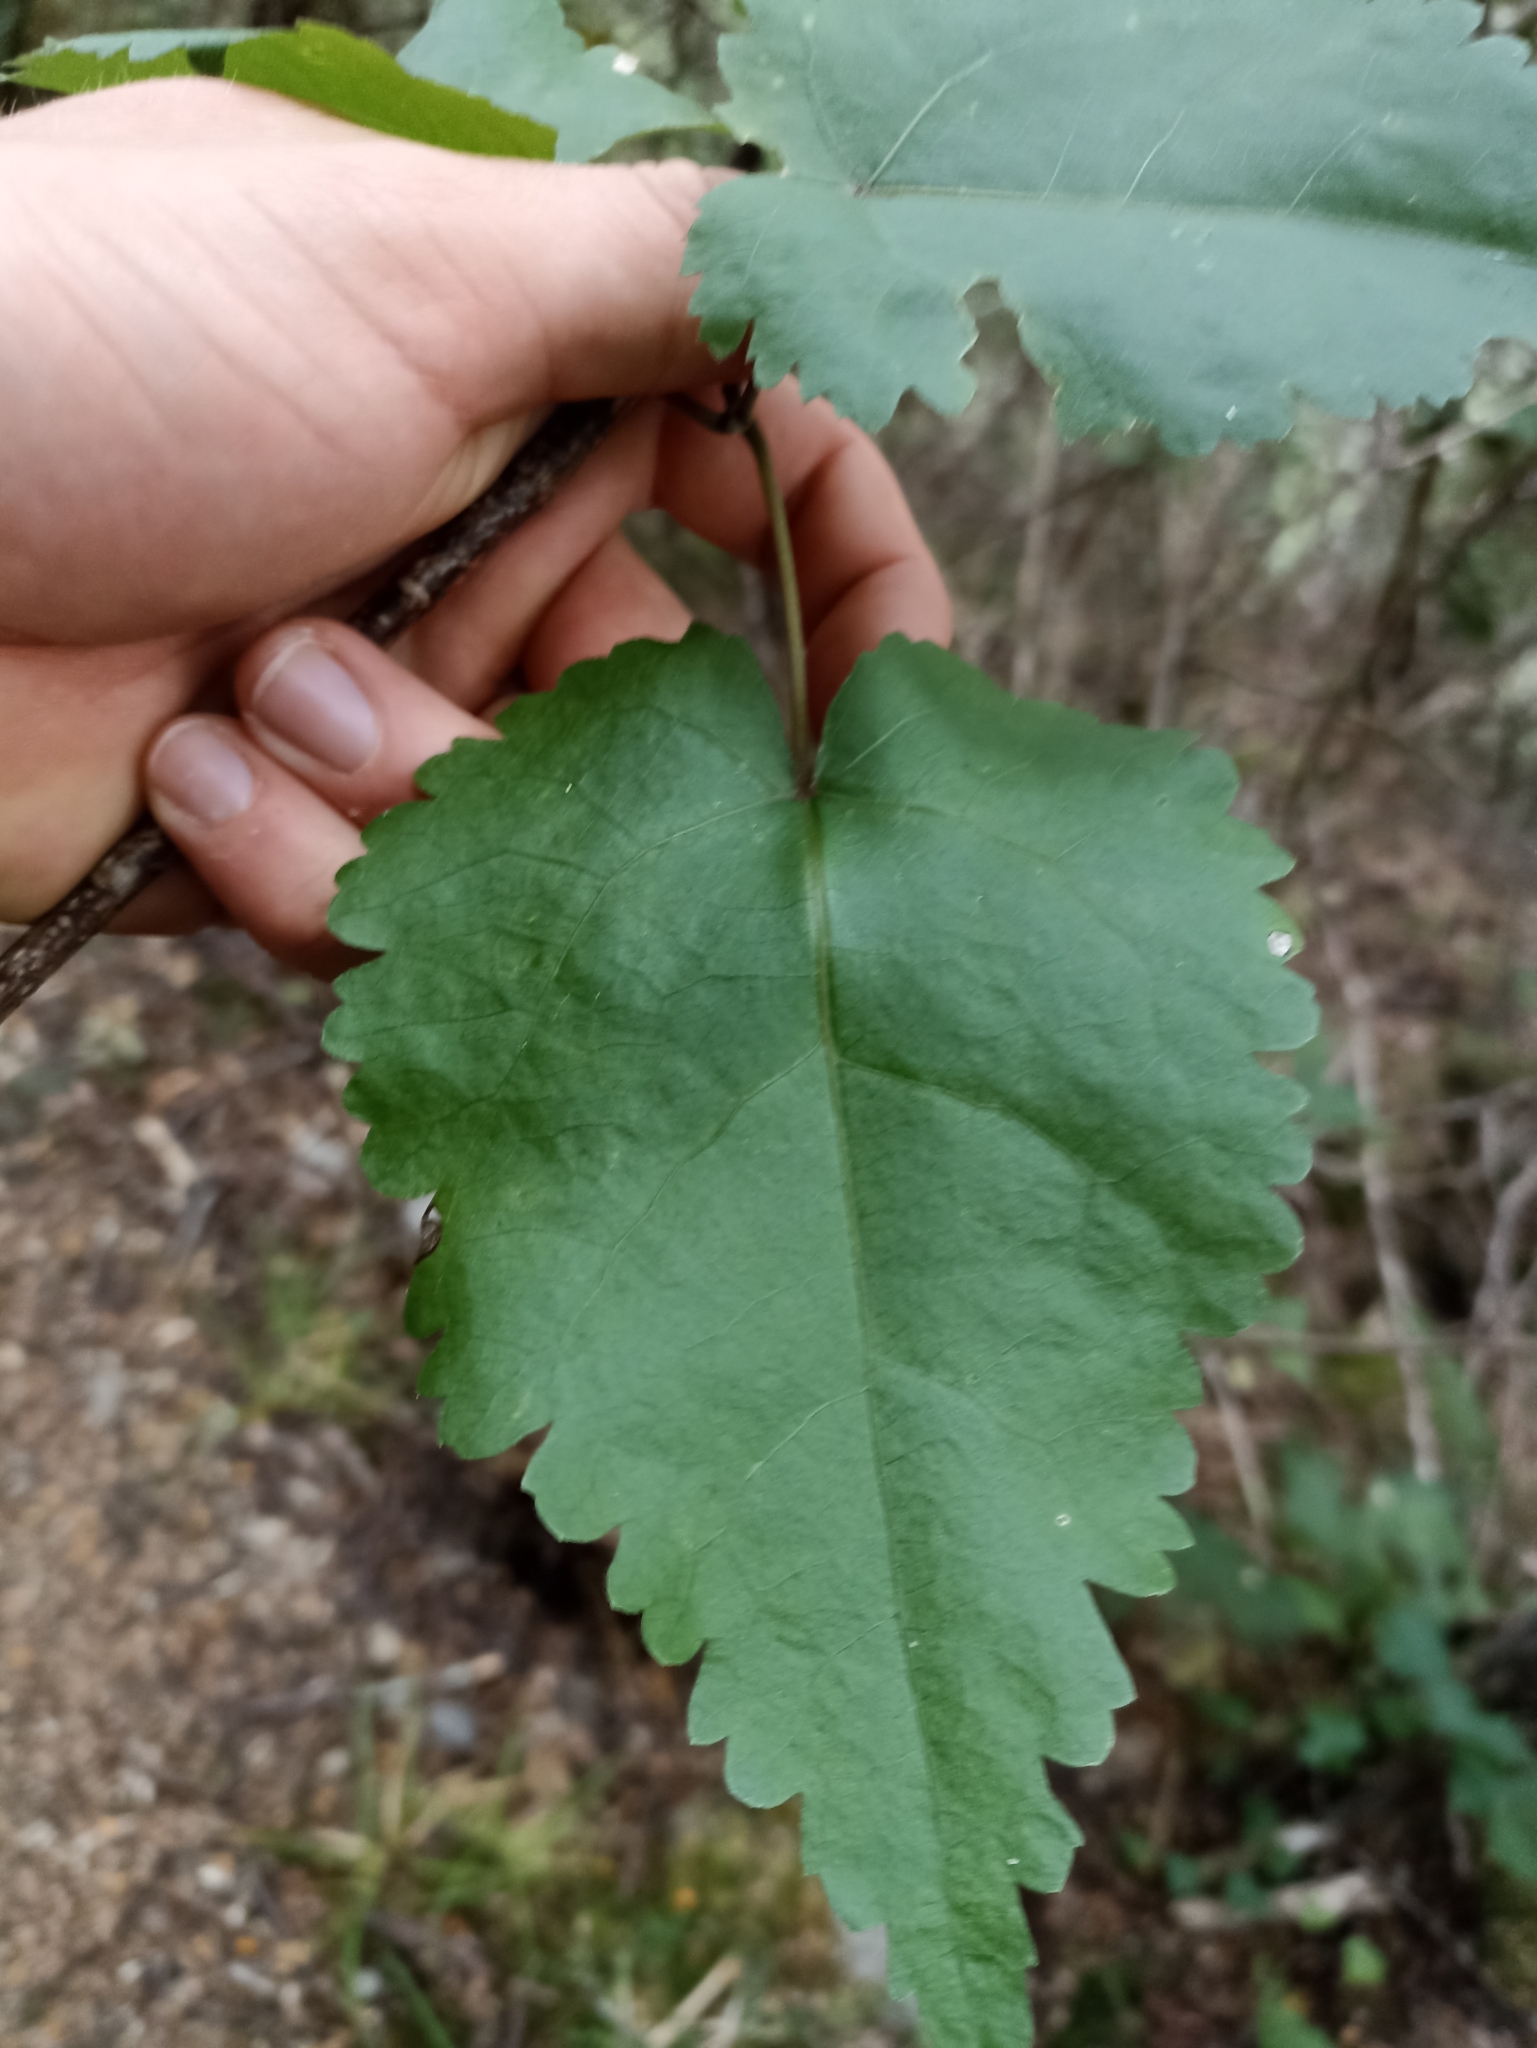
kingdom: Plantae
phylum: Tracheophyta
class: Magnoliopsida
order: Malvales
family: Malvaceae
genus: Hoheria
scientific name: Hoheria lyallii
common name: Lacebark
